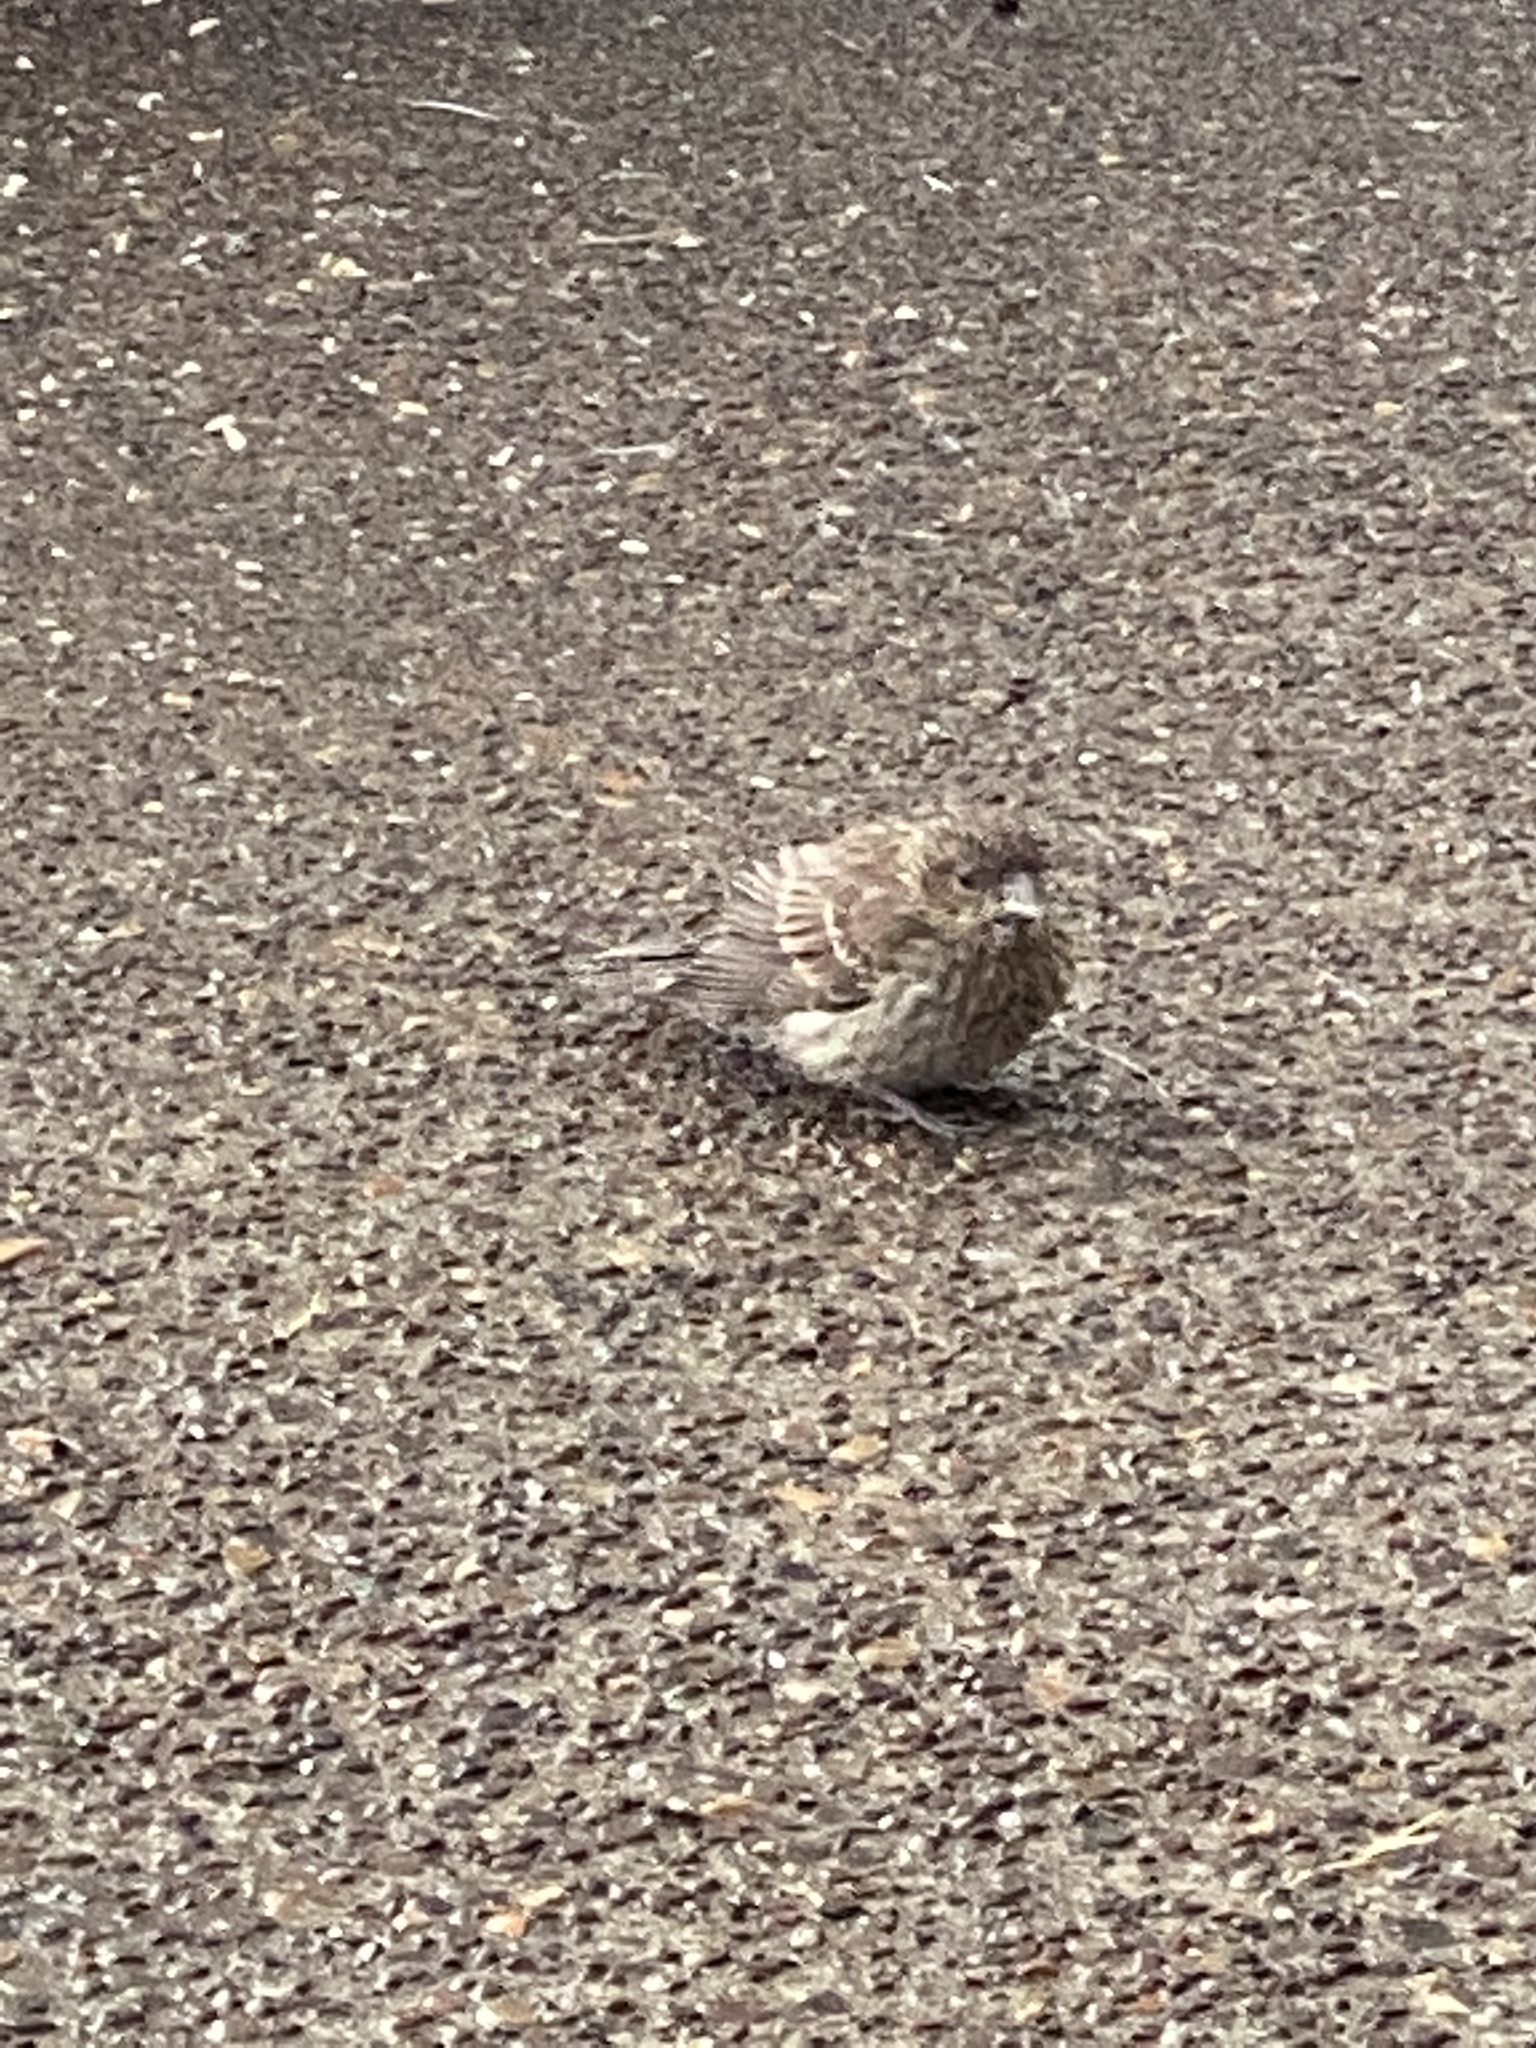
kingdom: Animalia
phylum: Chordata
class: Aves
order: Passeriformes
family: Fringillidae
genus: Haemorhous
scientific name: Haemorhous mexicanus
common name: House finch
